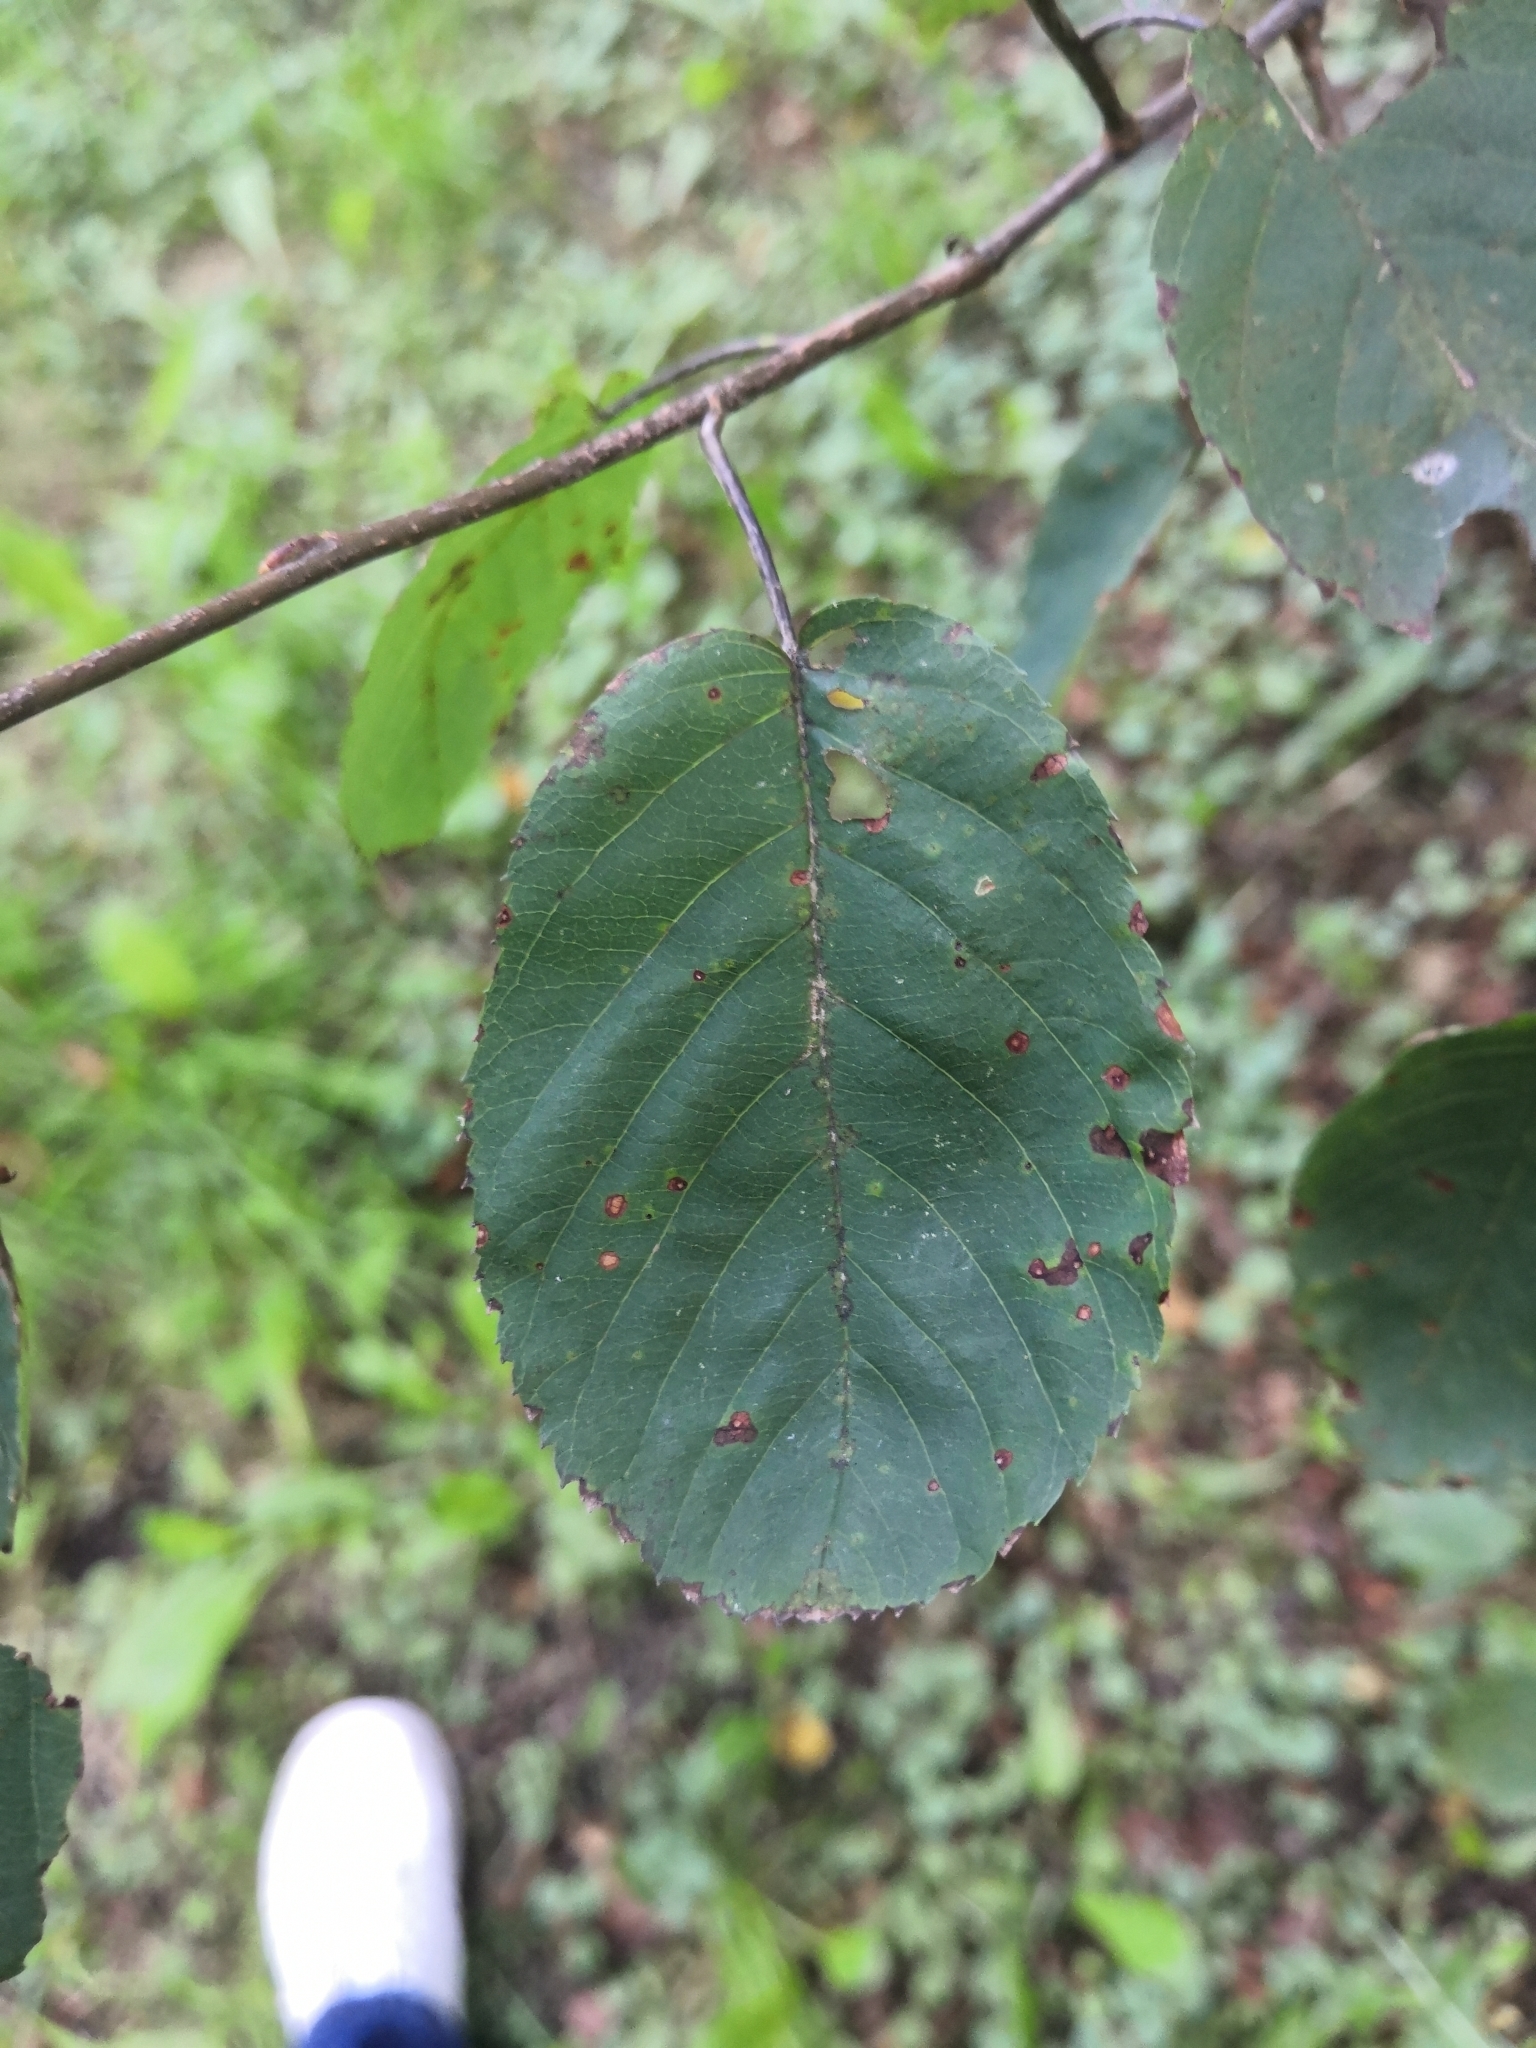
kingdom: Plantae
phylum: Tracheophyta
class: Magnoliopsida
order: Rosales
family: Rosaceae
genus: Amelanchier
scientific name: Amelanchier
